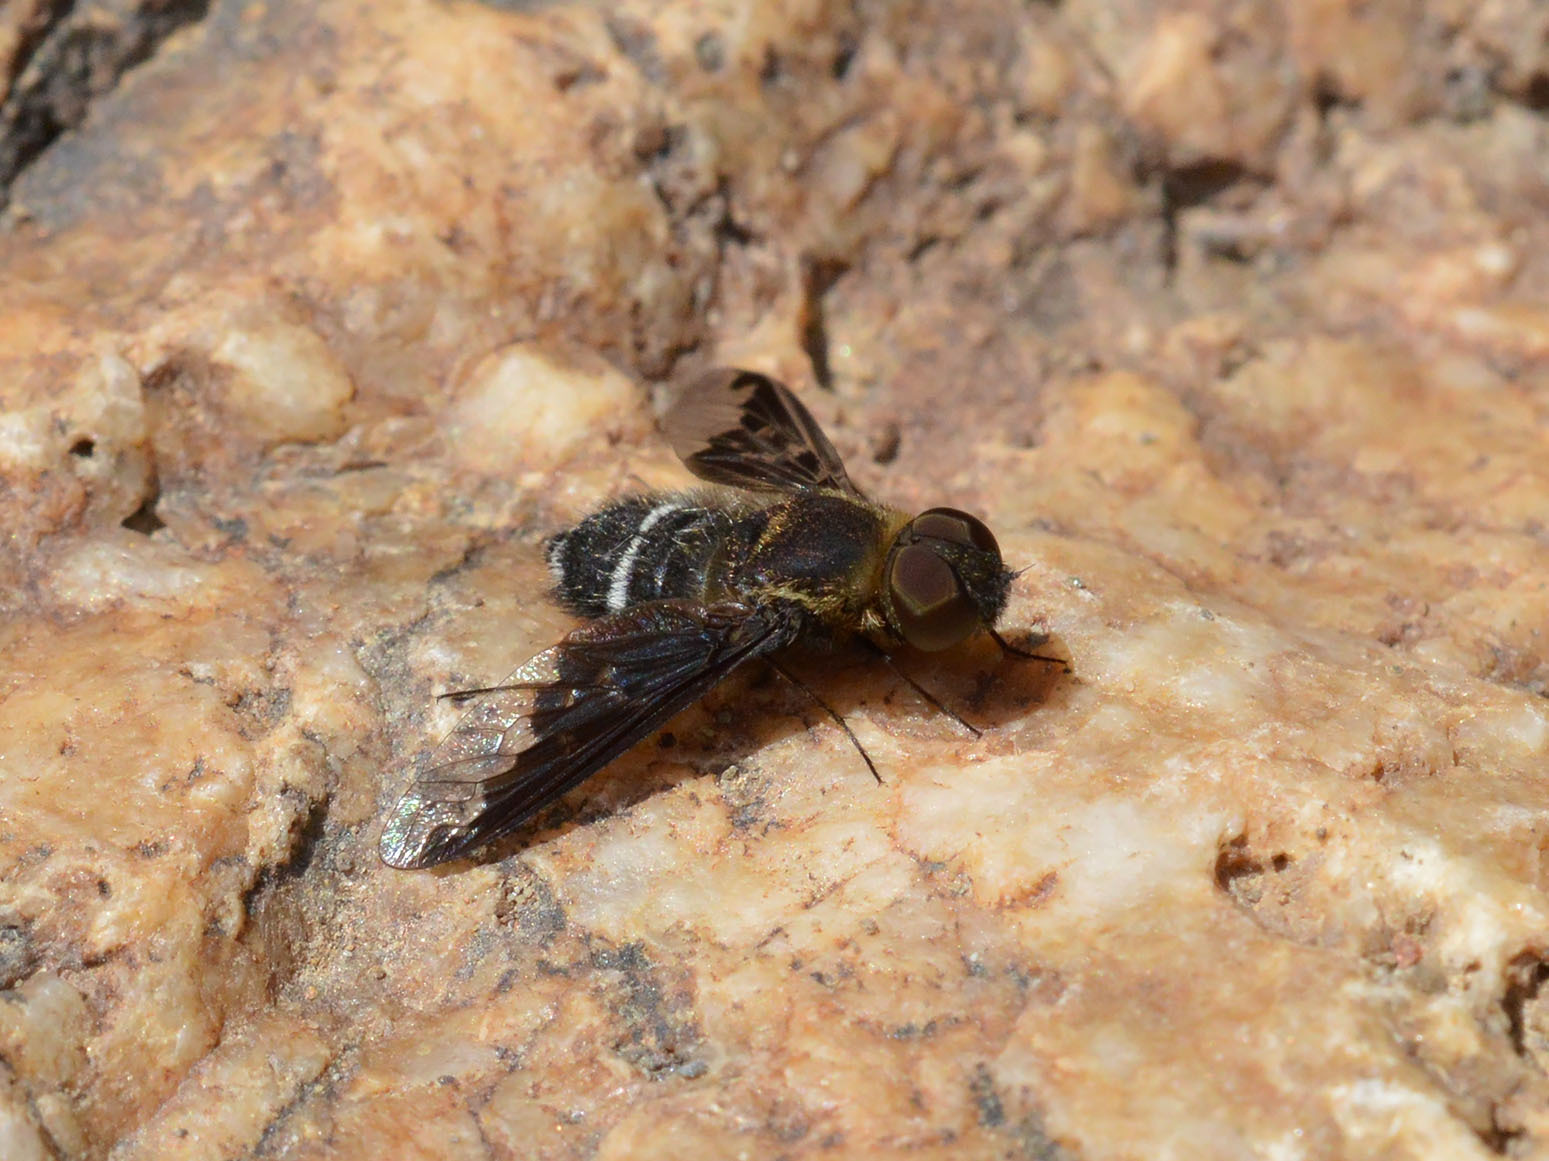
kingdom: Animalia
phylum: Arthropoda
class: Insecta
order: Diptera
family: Bombyliidae
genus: Hemipenthes
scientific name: Hemipenthes velutina
